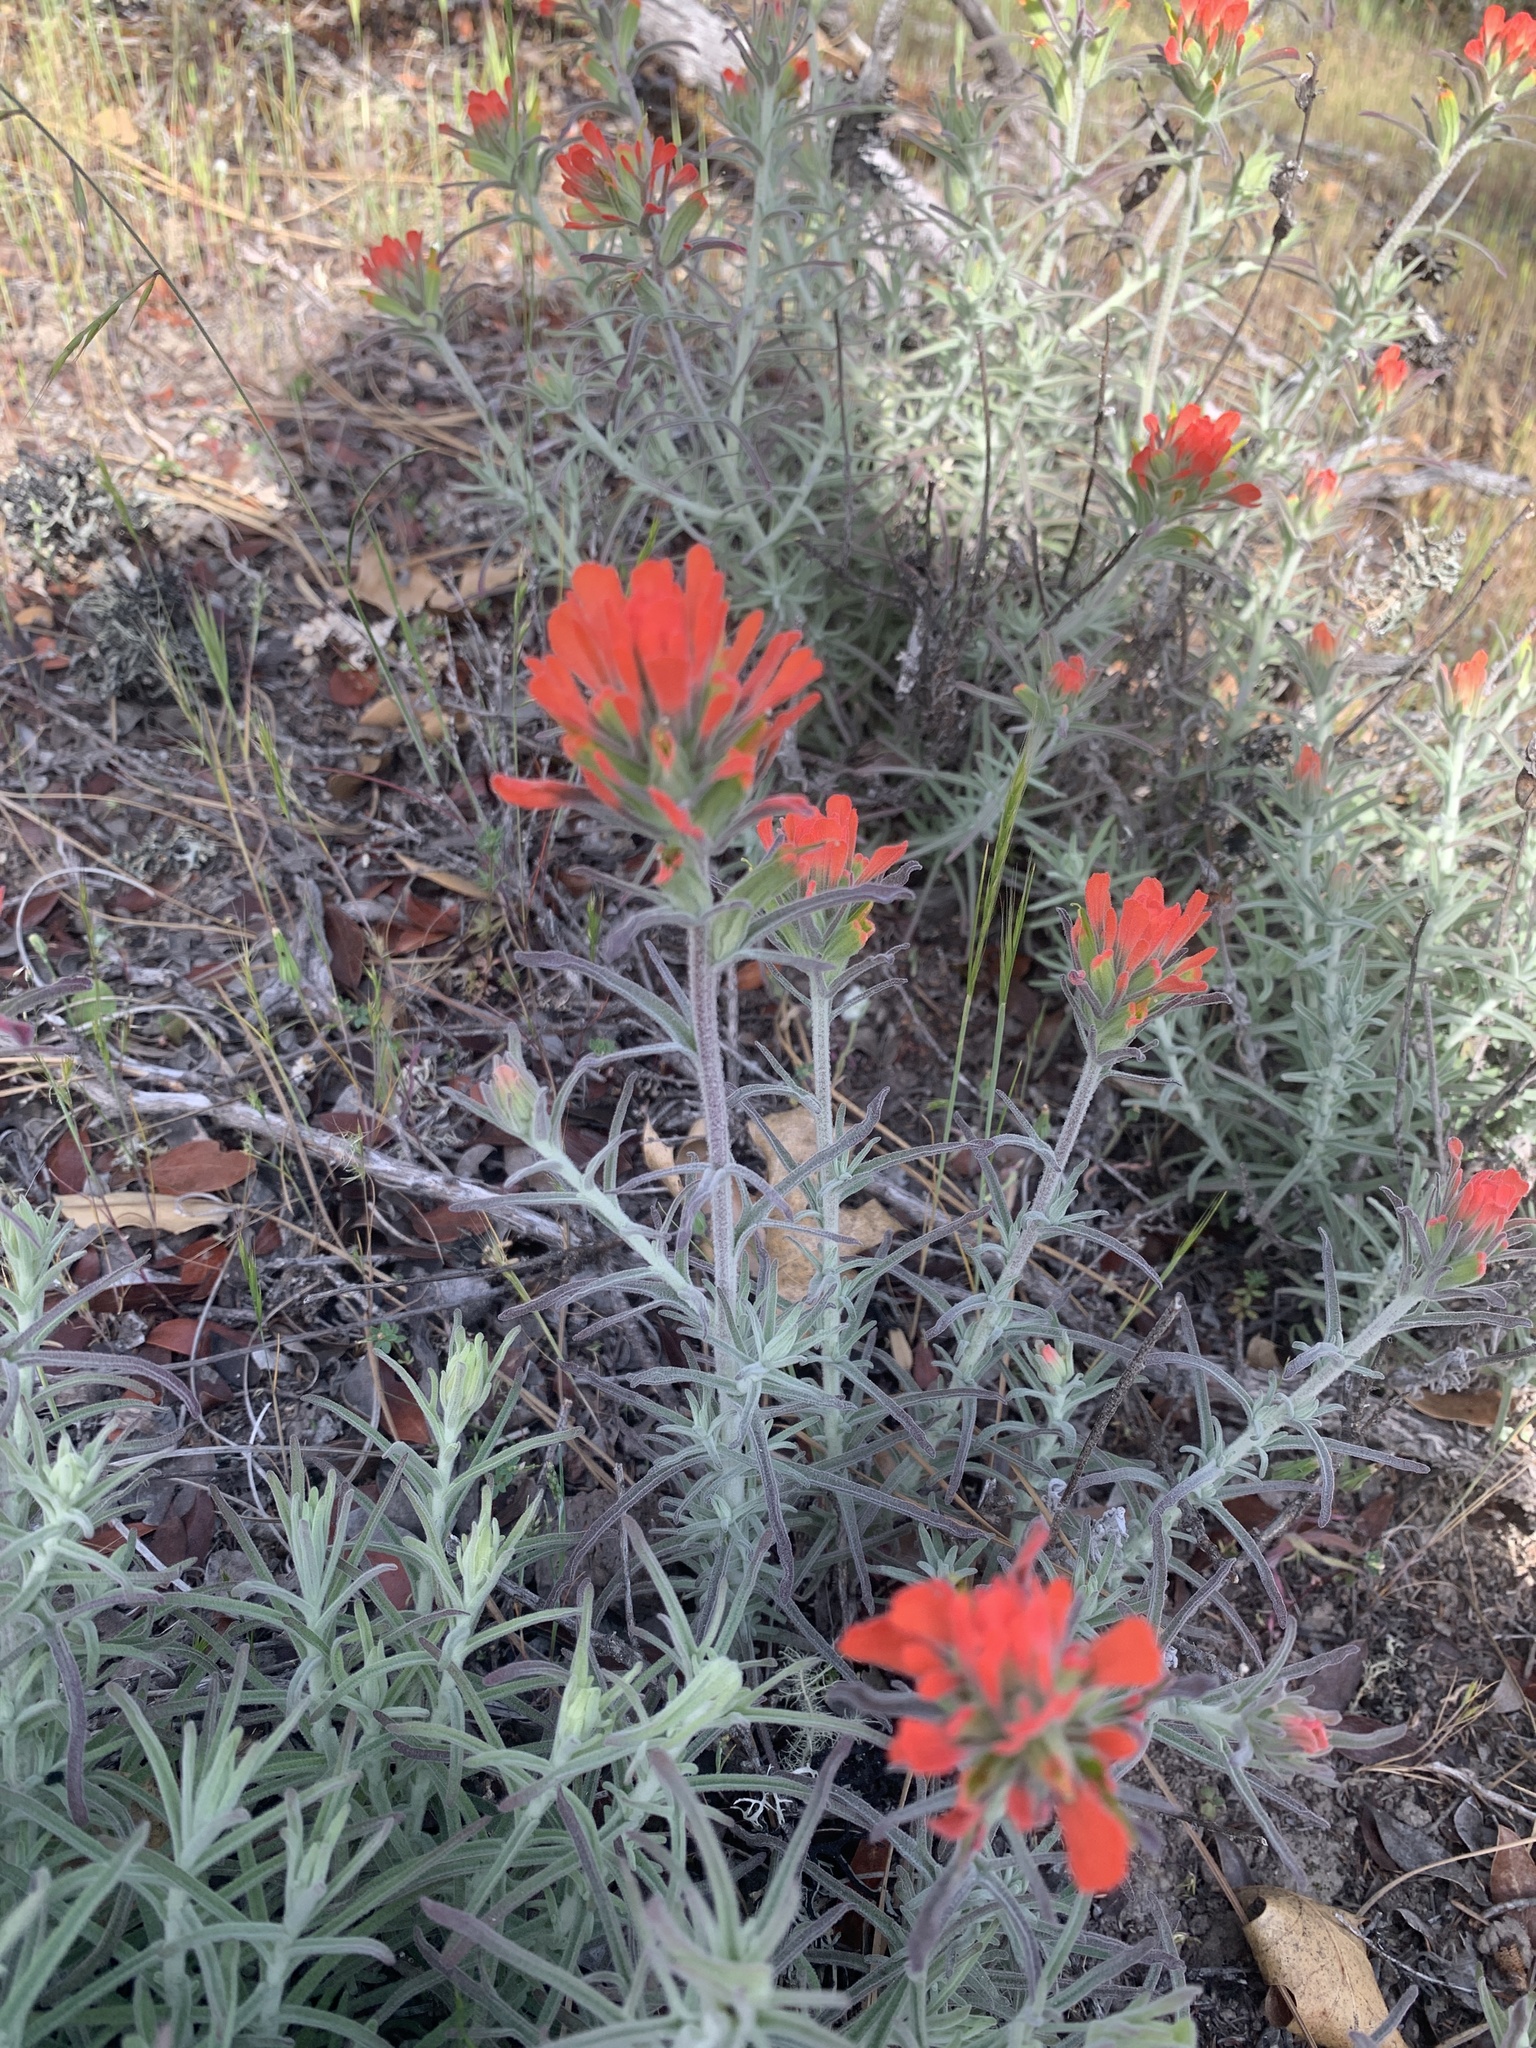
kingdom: Plantae
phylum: Tracheophyta
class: Magnoliopsida
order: Lamiales
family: Orobanchaceae
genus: Castilleja
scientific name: Castilleja foliolosa
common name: Woolly indian paintbrush
